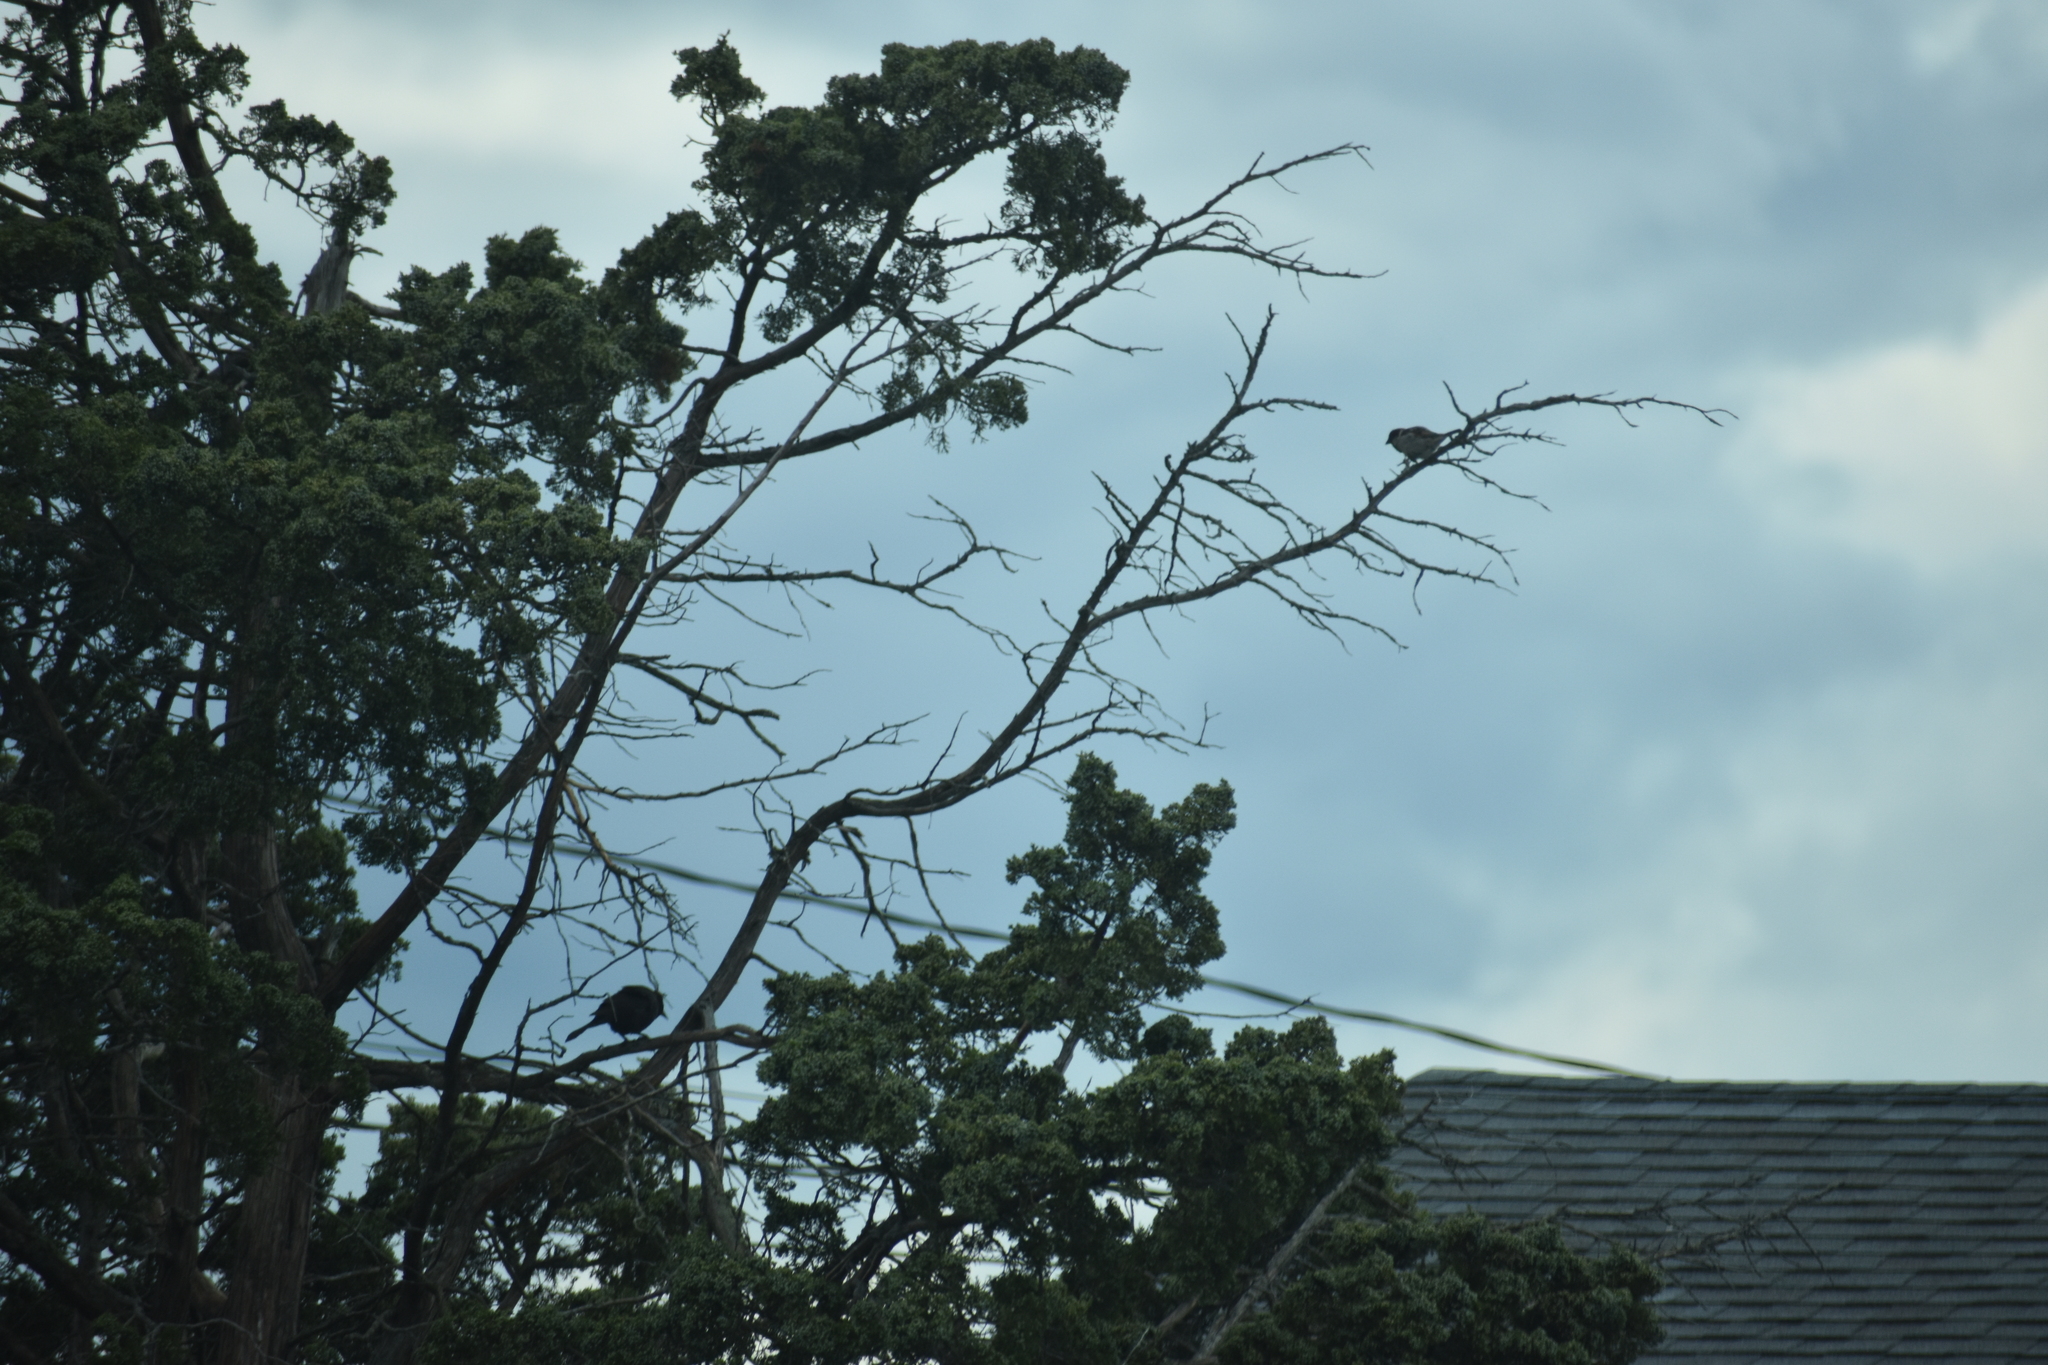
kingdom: Animalia
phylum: Chordata
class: Aves
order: Passeriformes
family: Icteridae
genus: Agelaius
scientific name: Agelaius phoeniceus
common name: Red-winged blackbird
